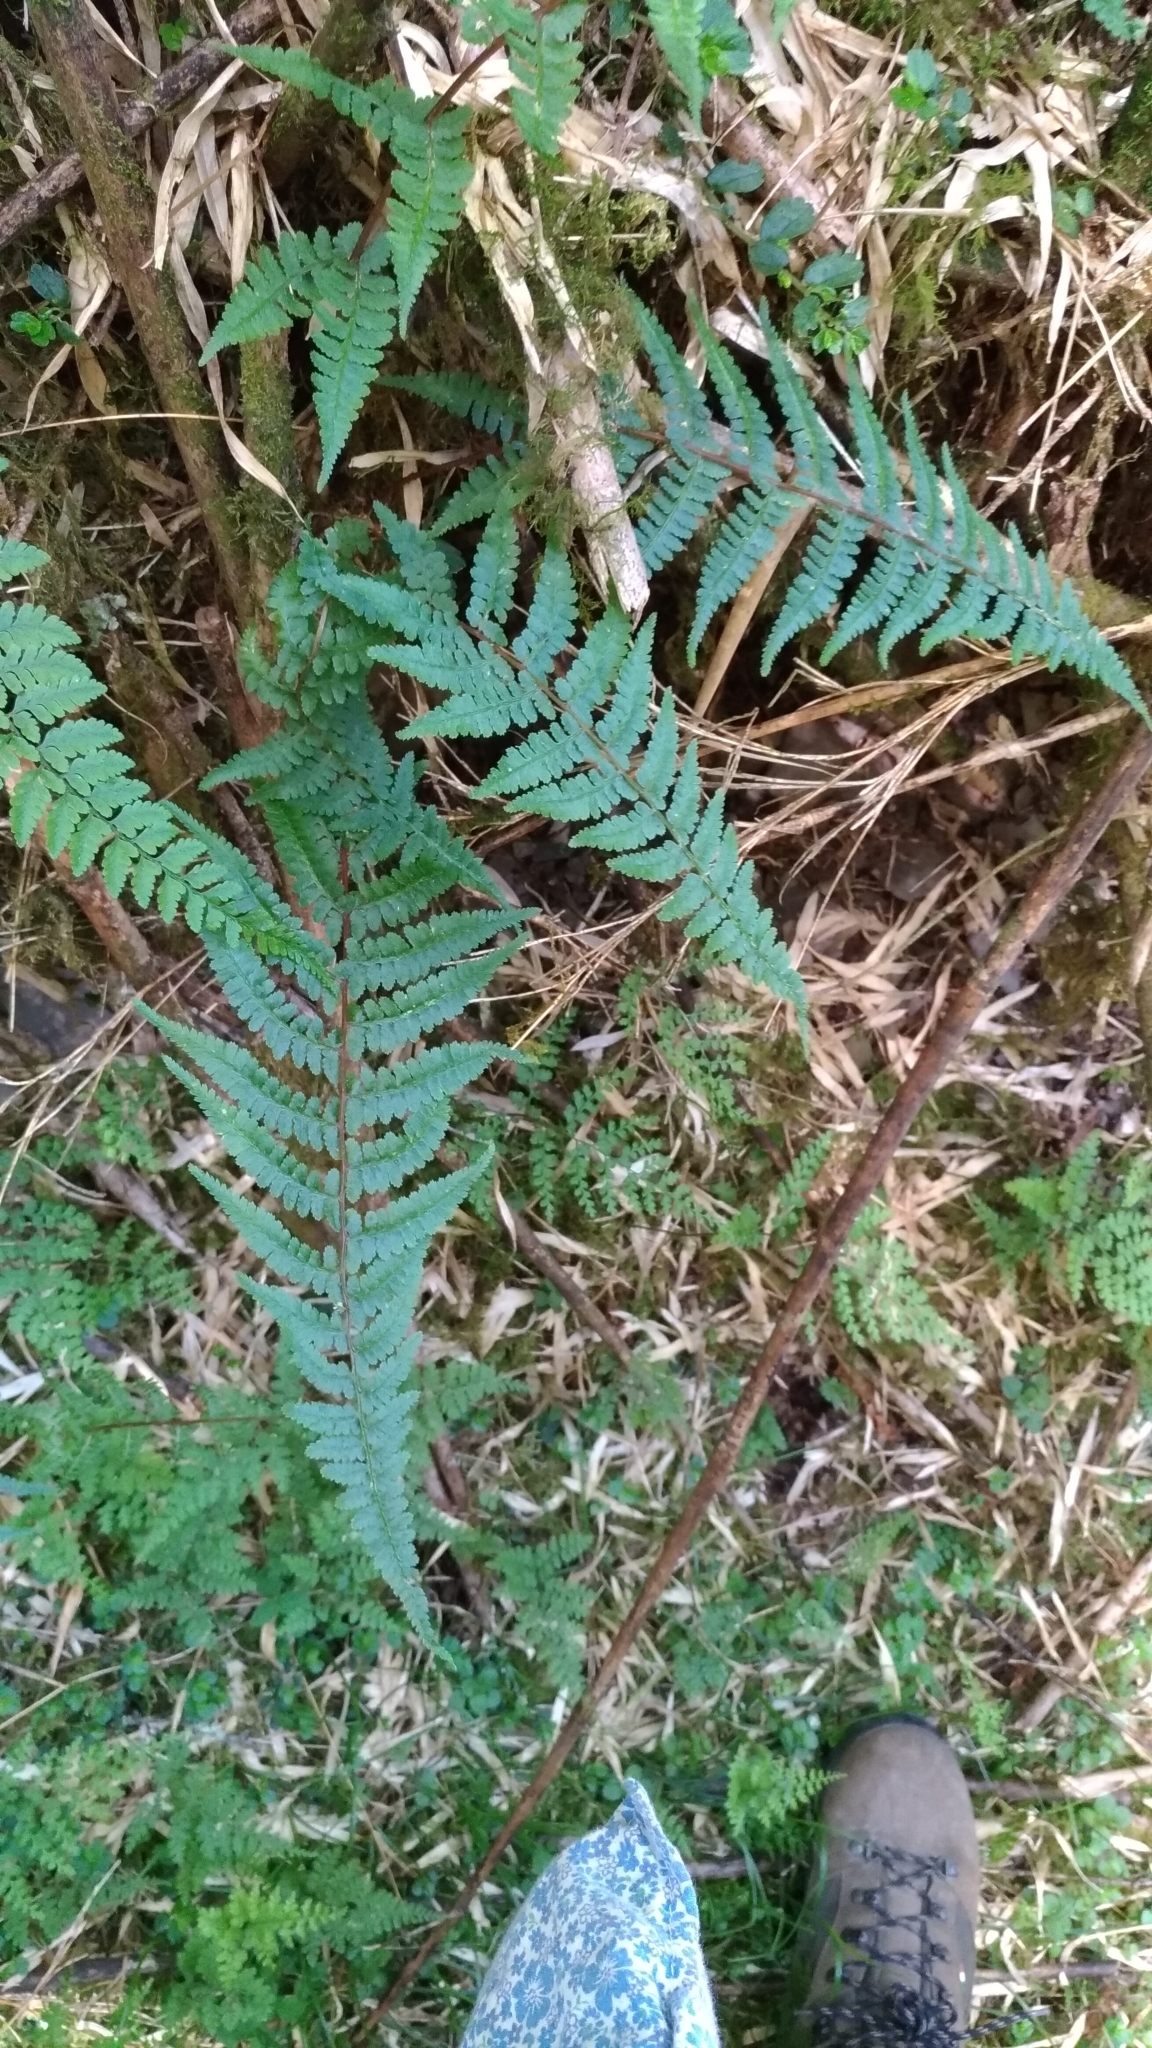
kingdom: Plantae
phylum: Tracheophyta
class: Polypodiopsida
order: Polypodiales
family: Athyriaceae
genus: Athyrium
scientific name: Athyrium oppositipennum
